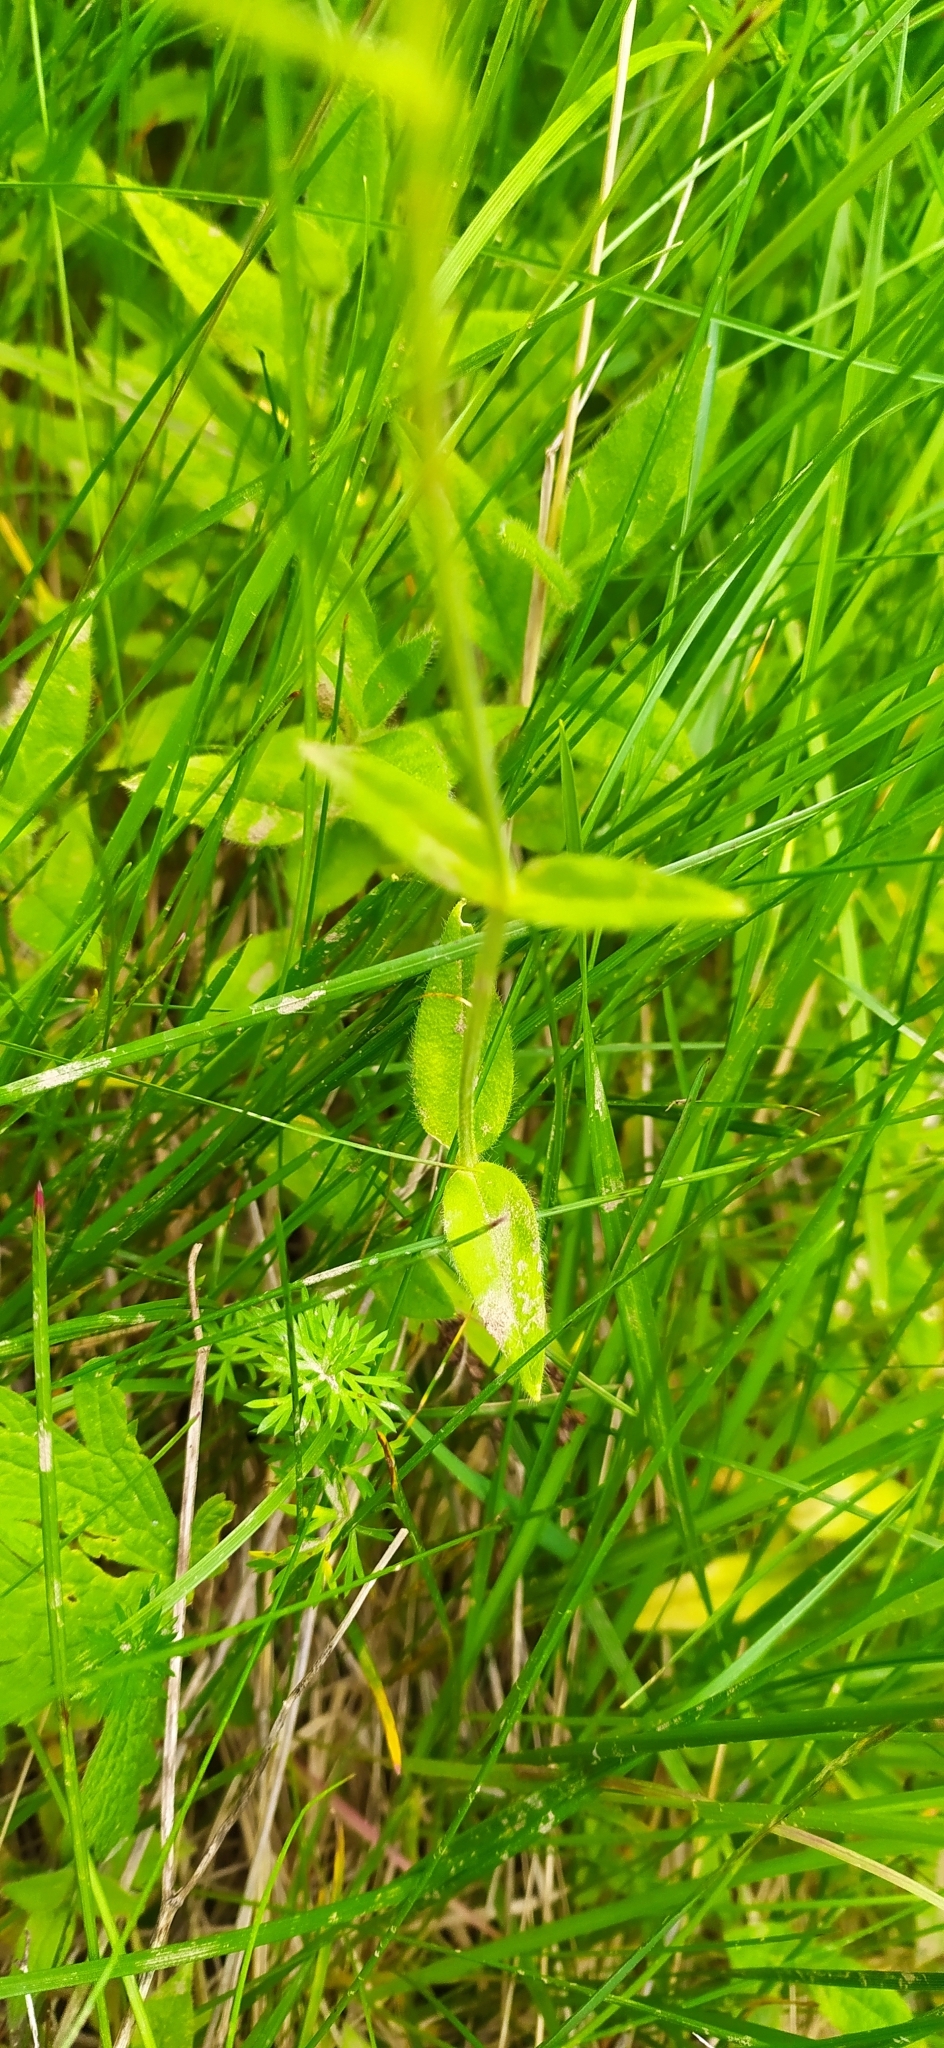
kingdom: Plantae
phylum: Tracheophyta
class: Magnoliopsida
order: Caryophyllales
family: Caryophyllaceae
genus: Cerastium
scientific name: Cerastium pauciflorum
